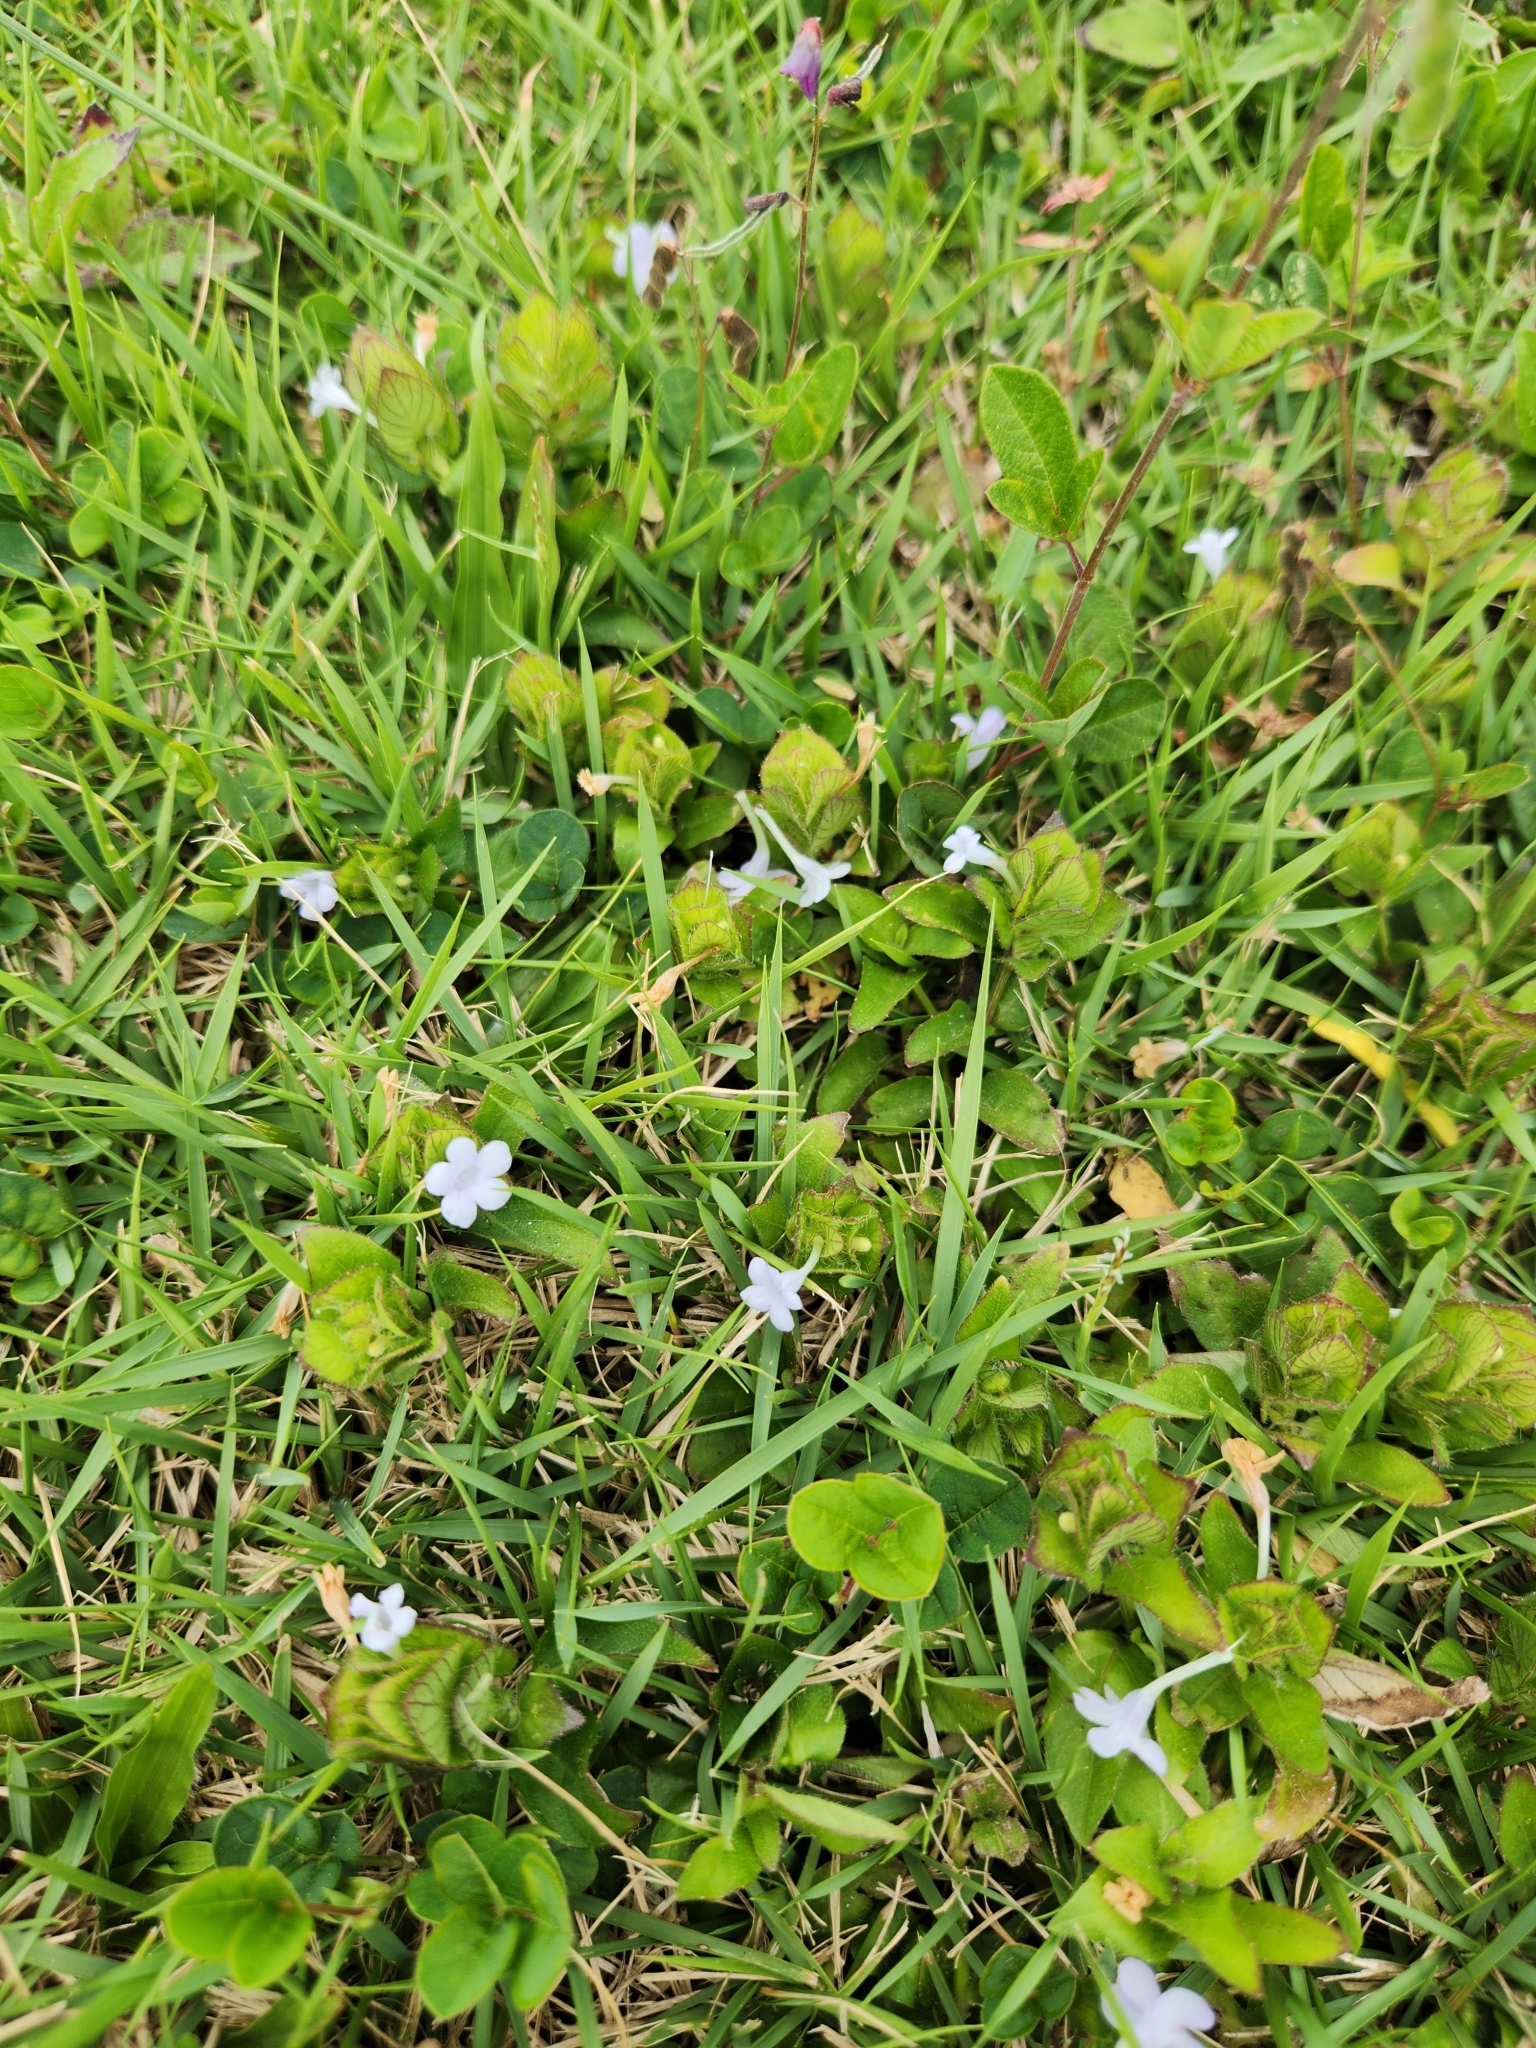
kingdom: Plantae
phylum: Tracheophyta
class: Magnoliopsida
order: Lamiales
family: Acanthaceae
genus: Ruellia
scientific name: Ruellia blechum
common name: Browne's blechum
